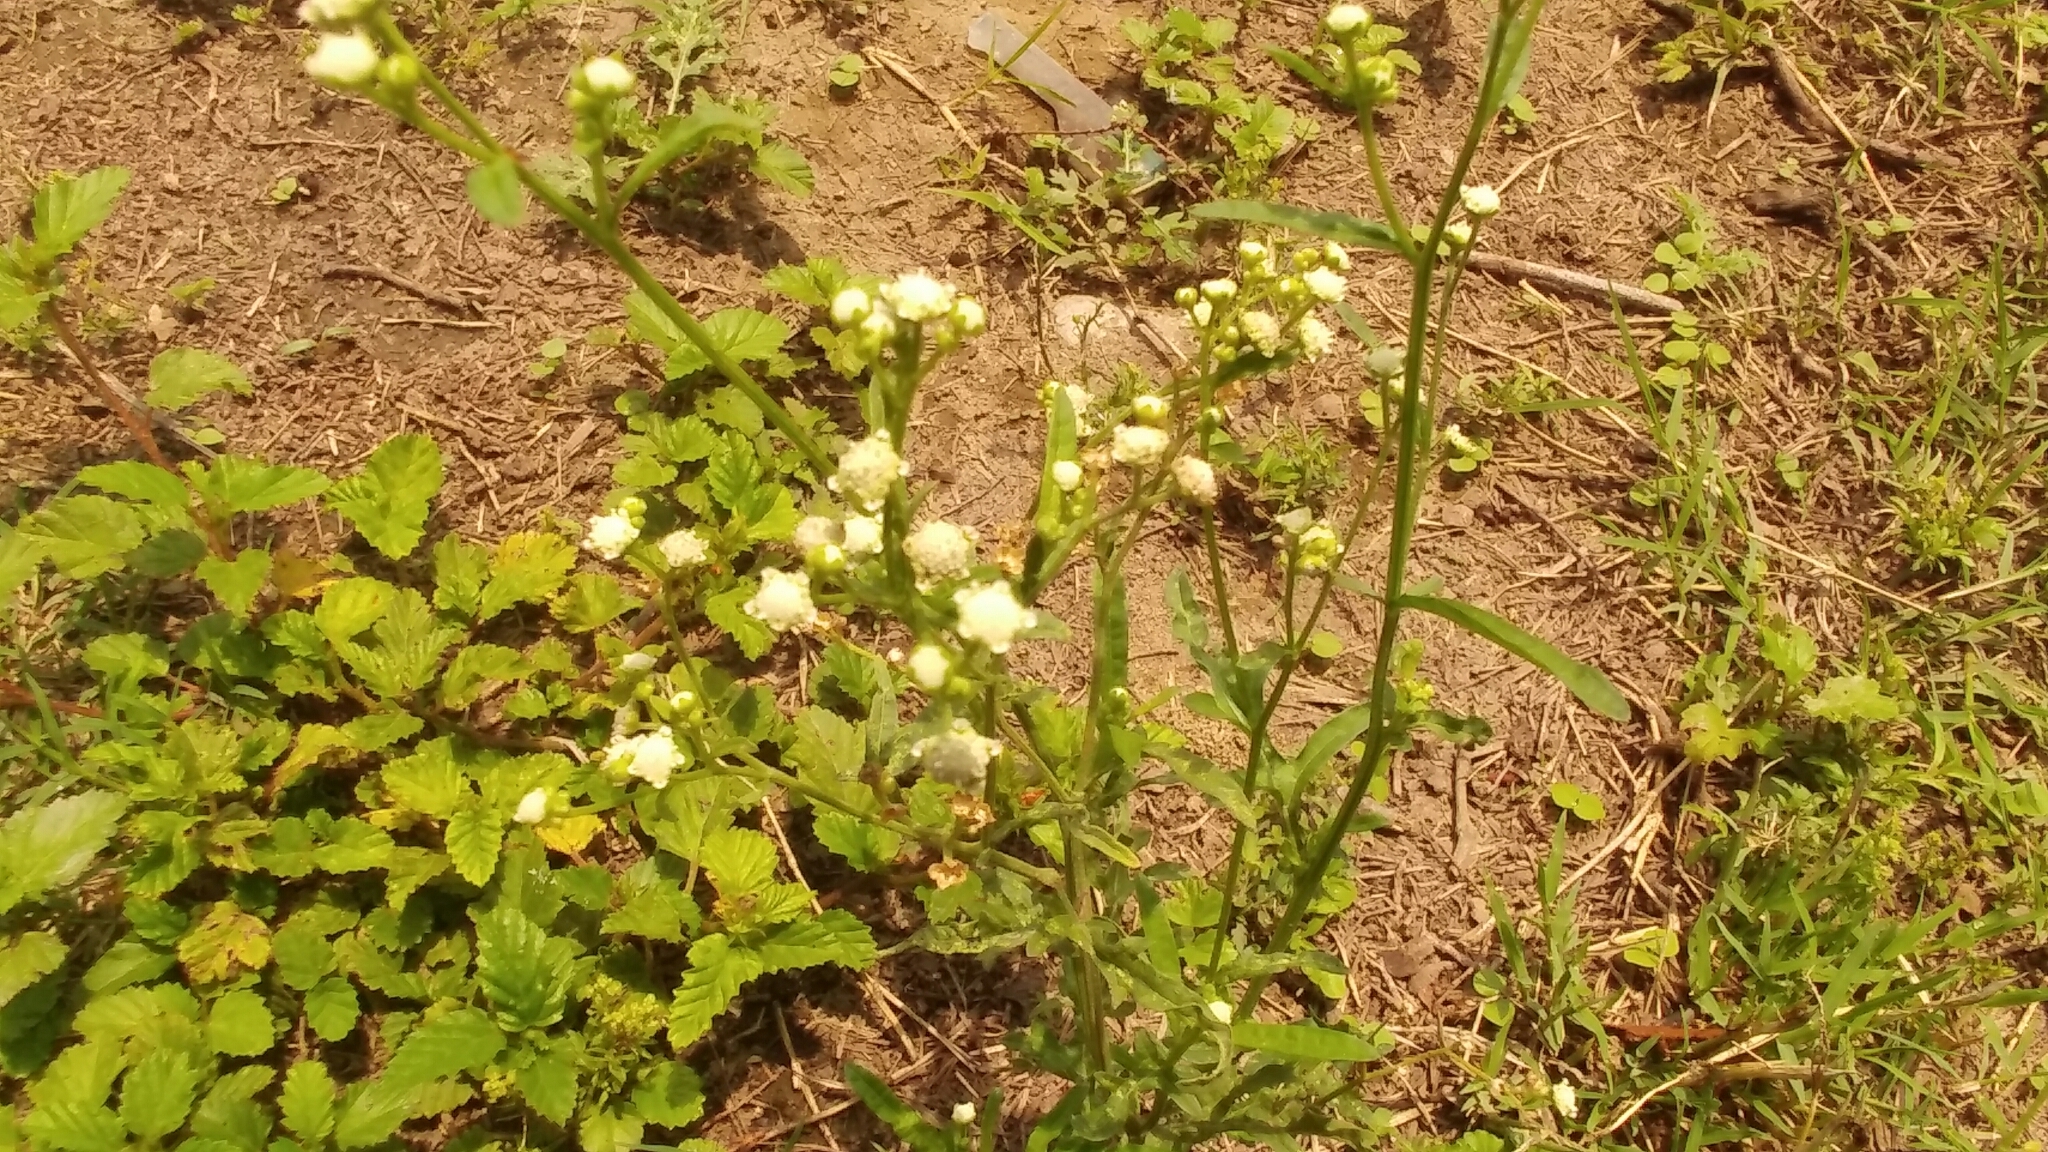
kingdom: Plantae
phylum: Tracheophyta
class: Magnoliopsida
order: Asterales
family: Asteraceae
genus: Parthenium
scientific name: Parthenium hysterophorus
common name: Santa maria feverfew
